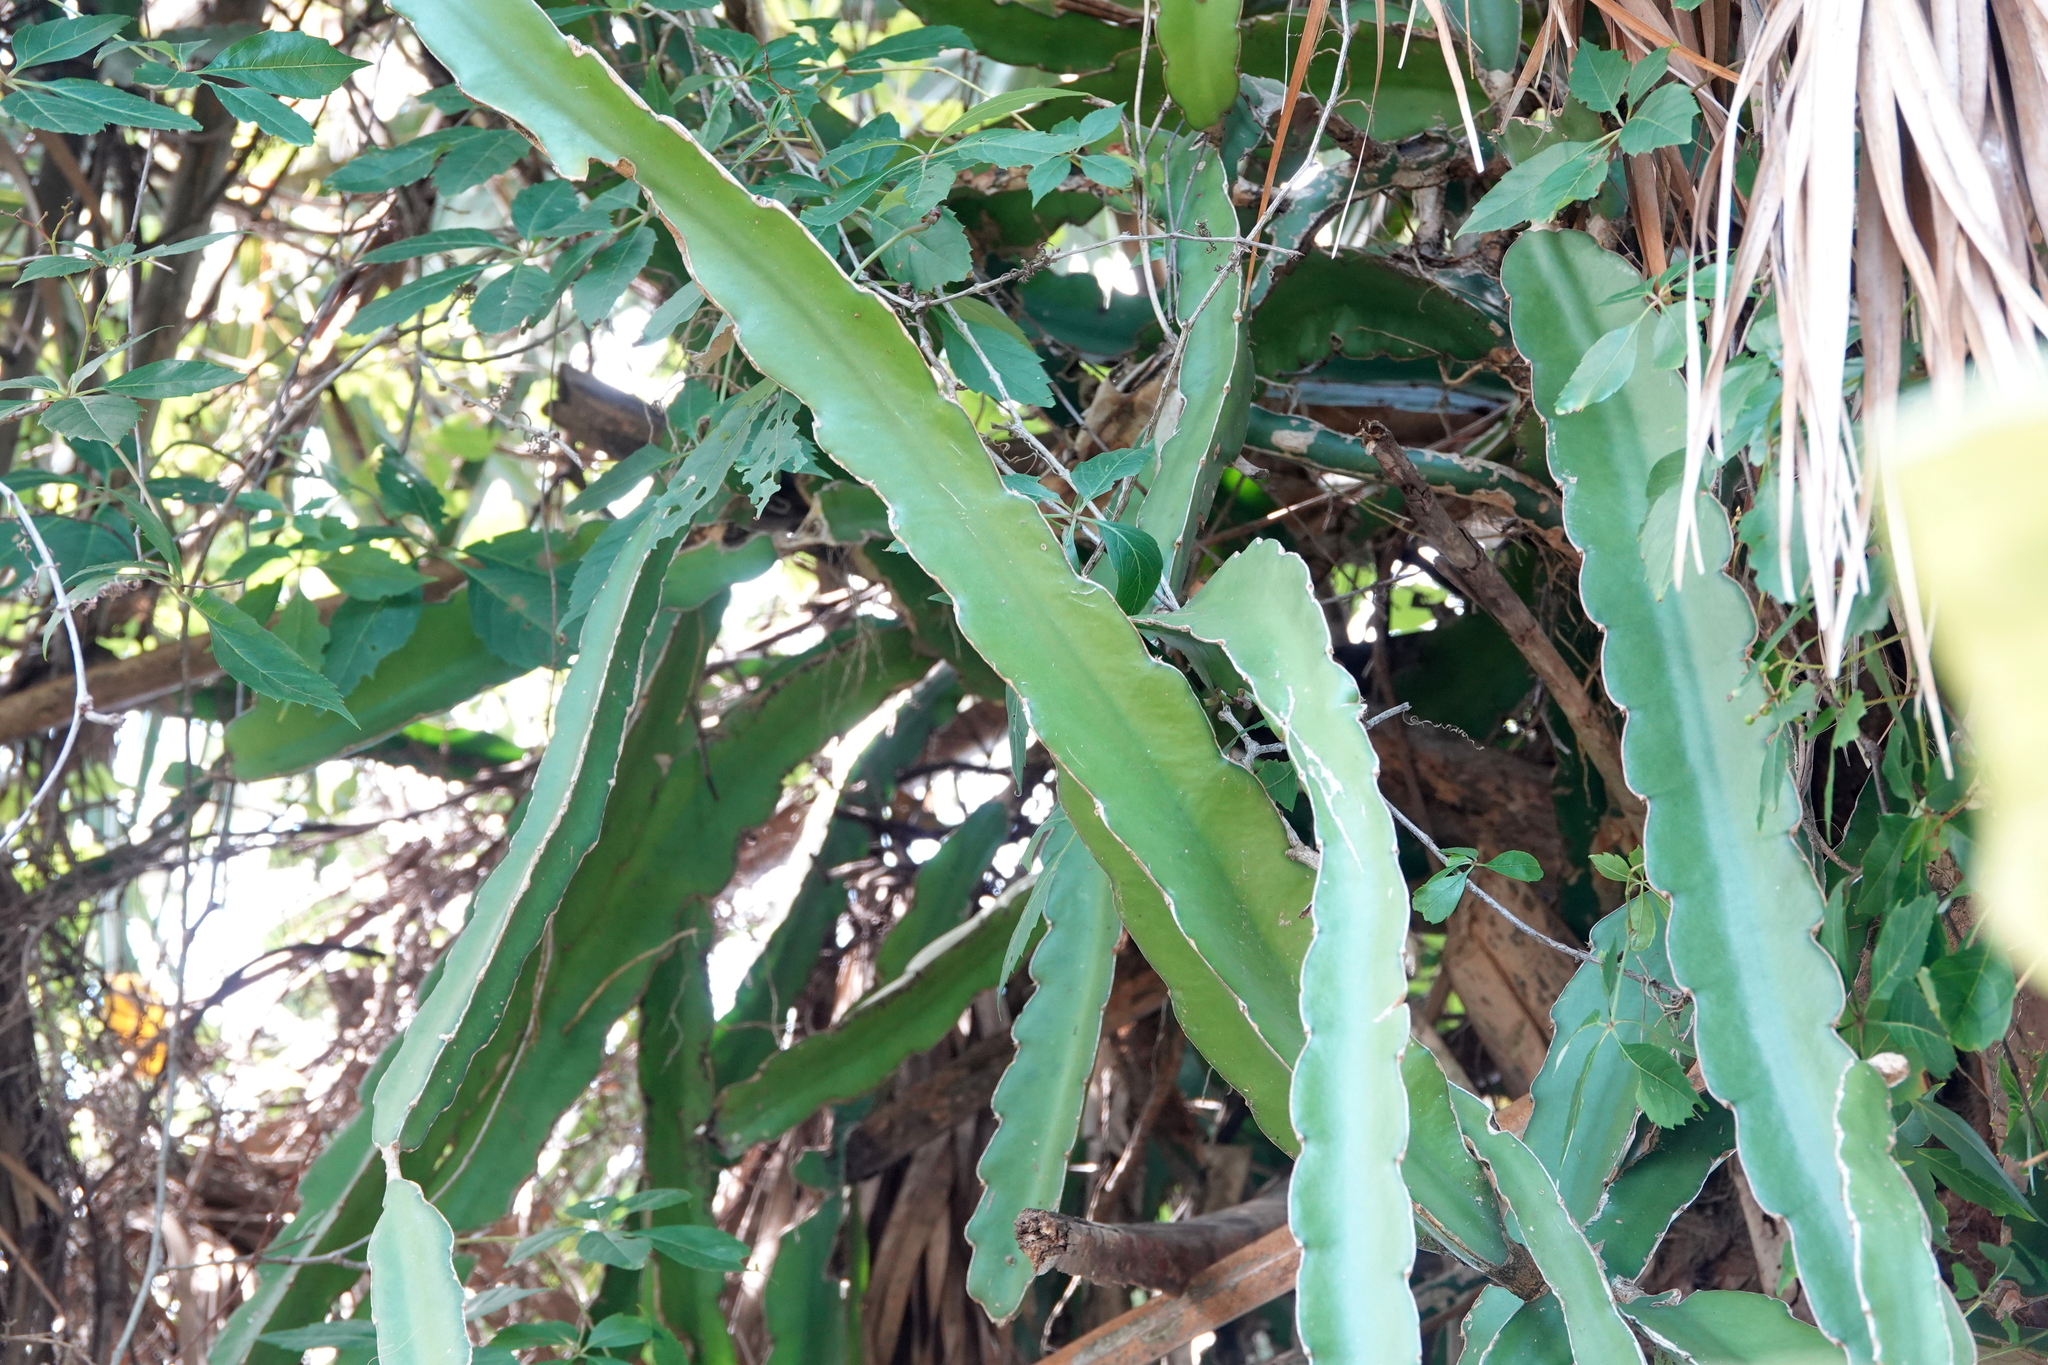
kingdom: Plantae
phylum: Tracheophyta
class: Magnoliopsida
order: Caryophyllales
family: Cactaceae
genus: Selenicereus
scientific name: Selenicereus undatus
